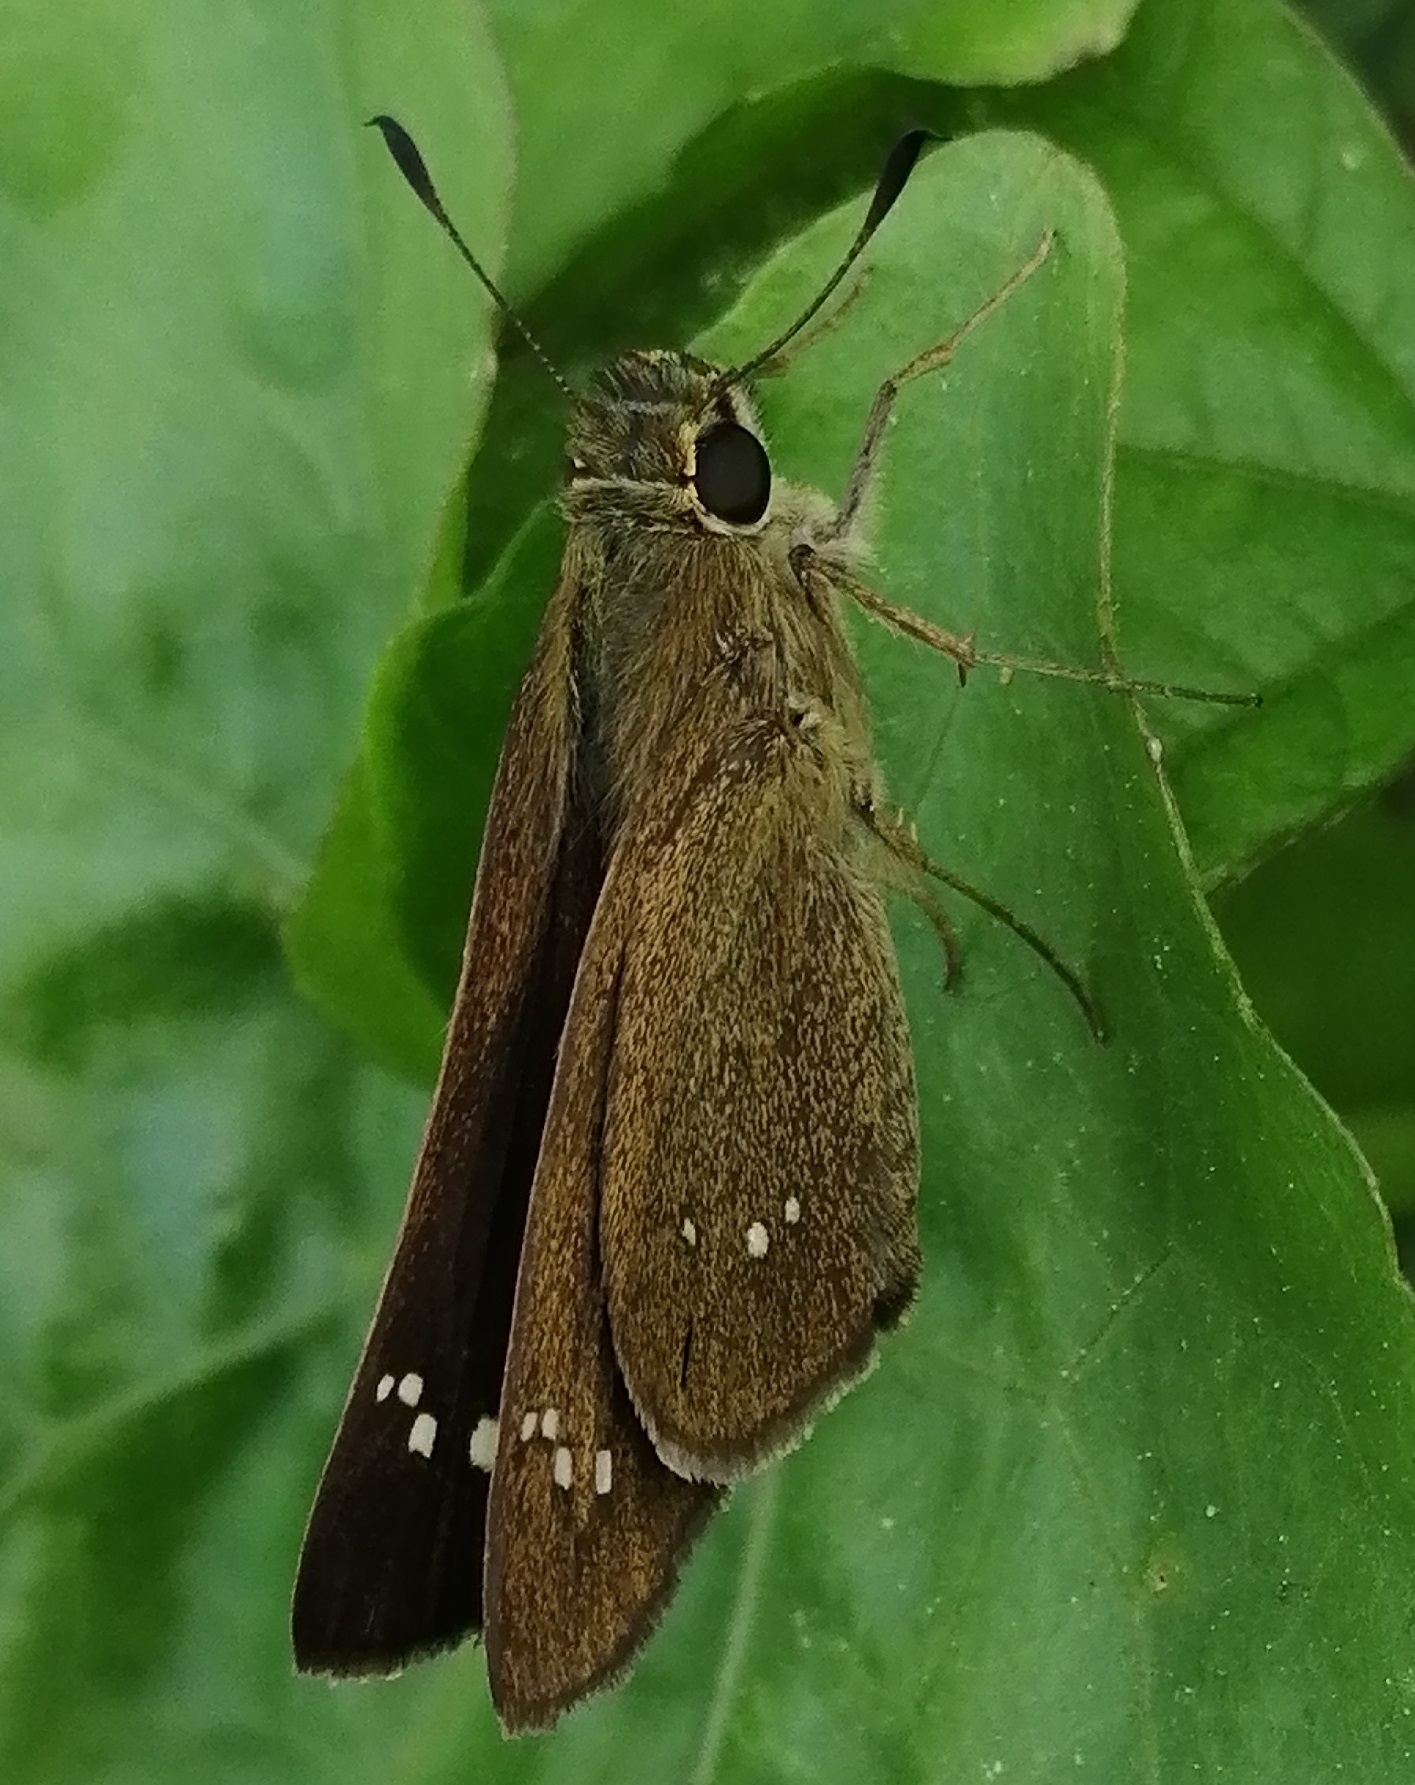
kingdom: Animalia
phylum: Arthropoda
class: Insecta
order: Lepidoptera
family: Hesperiidae
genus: Borbo
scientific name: Borbo cinnara
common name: Formosan swift
